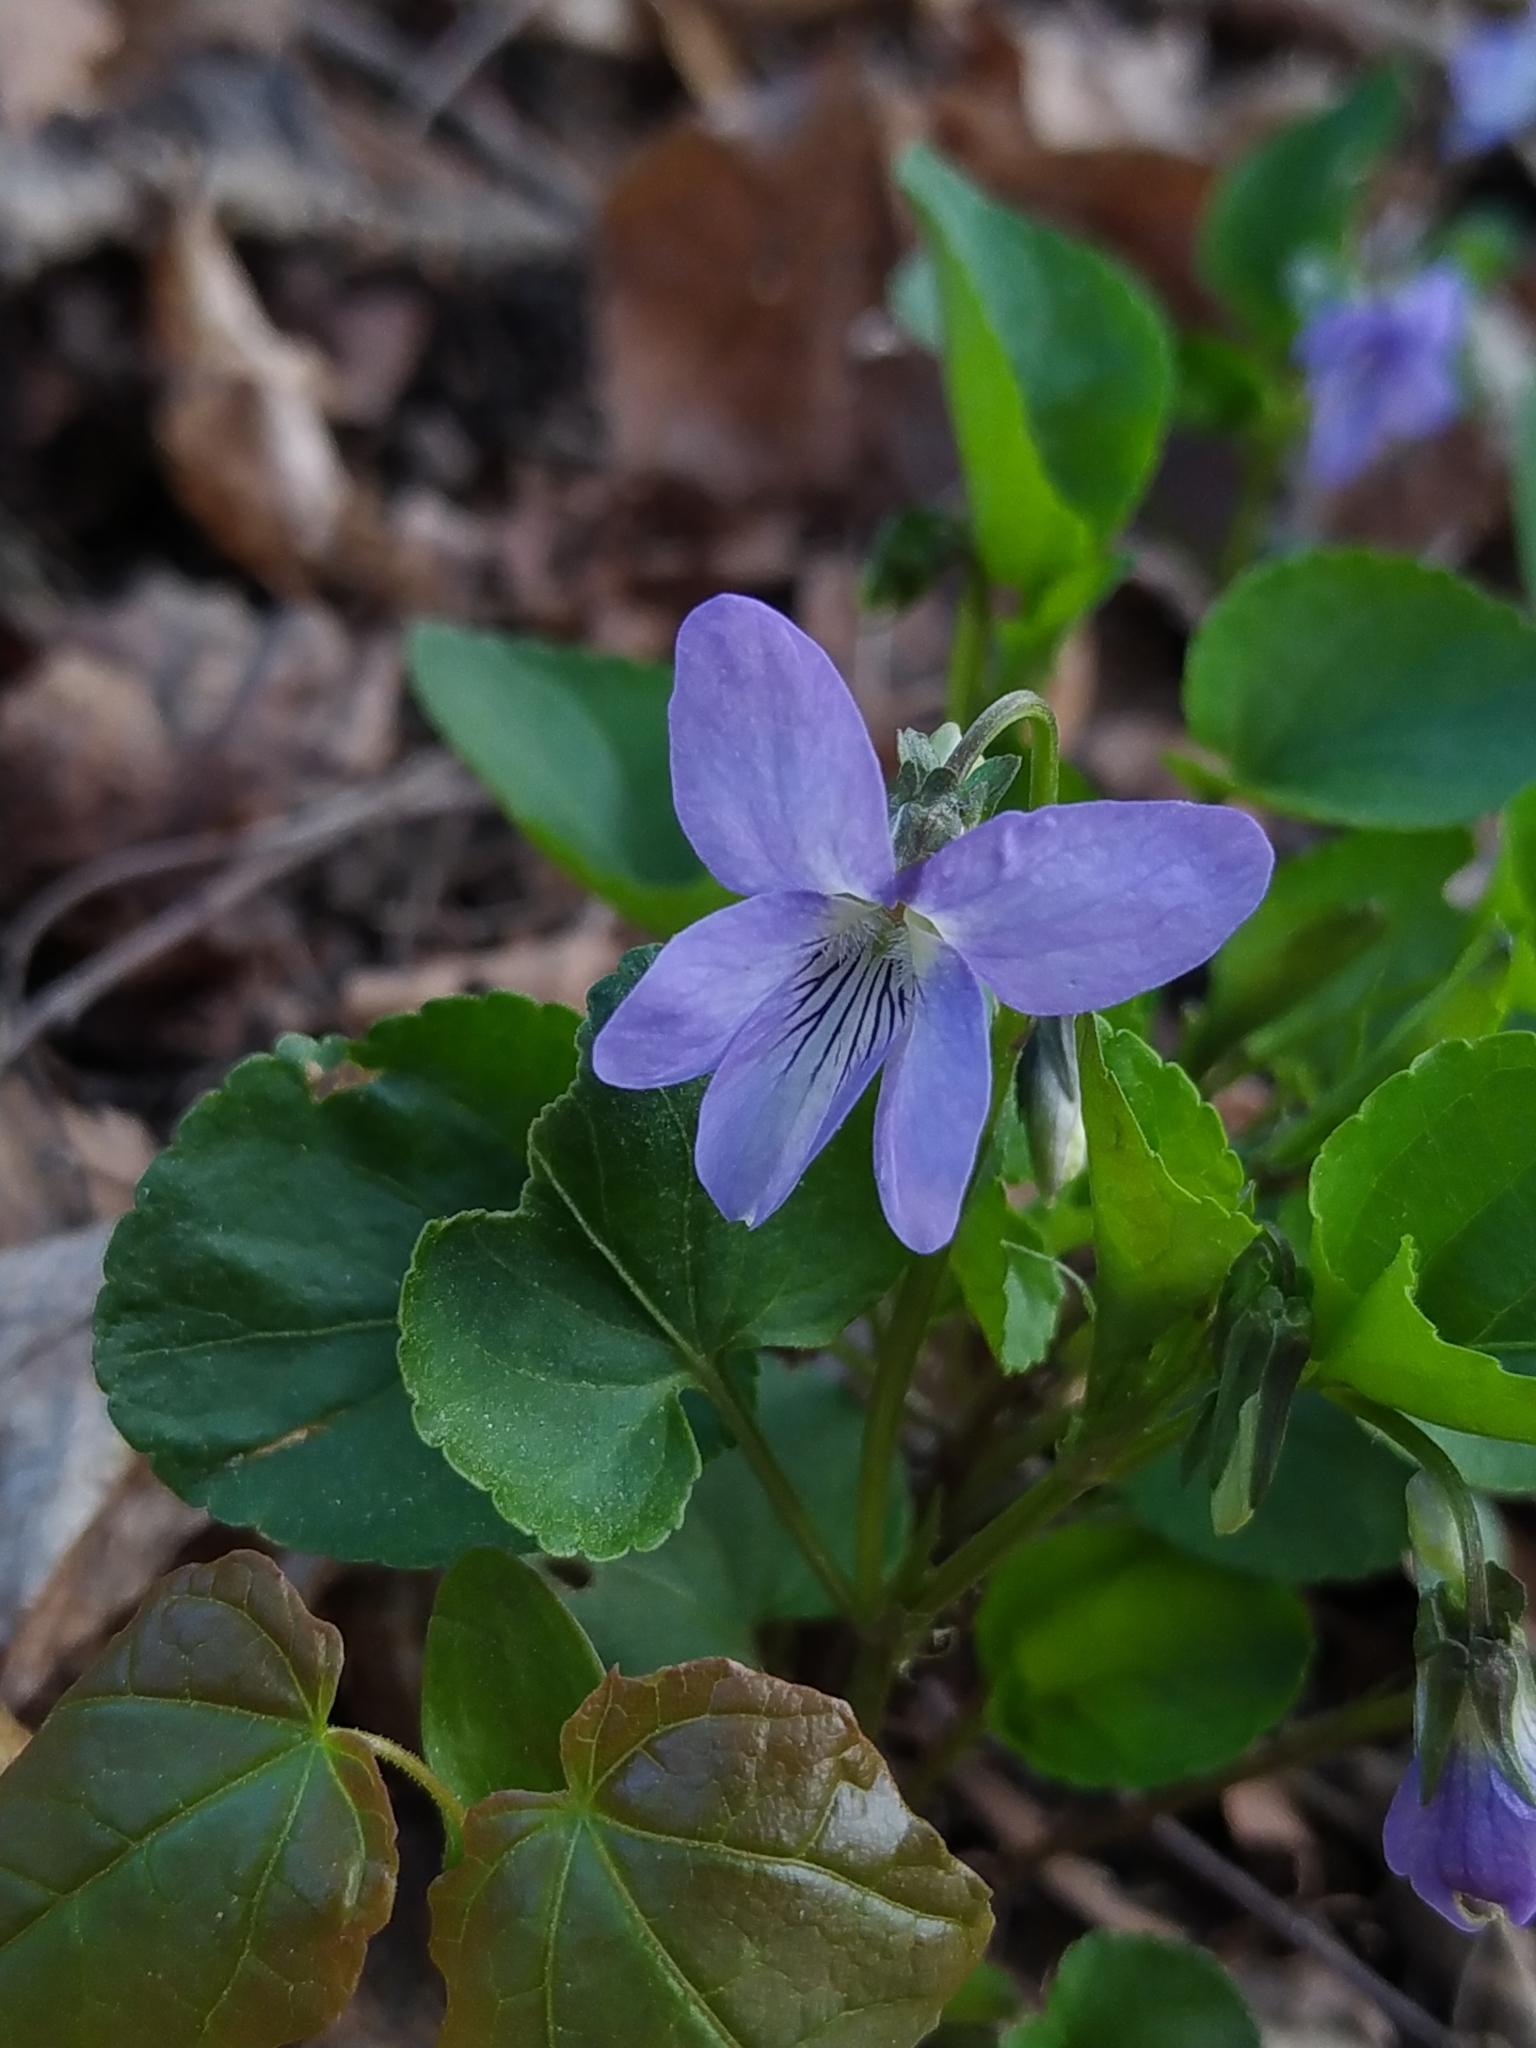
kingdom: Plantae
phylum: Tracheophyta
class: Magnoliopsida
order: Malpighiales
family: Violaceae
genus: Viola
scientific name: Viola riviniana
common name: Common dog-violet
